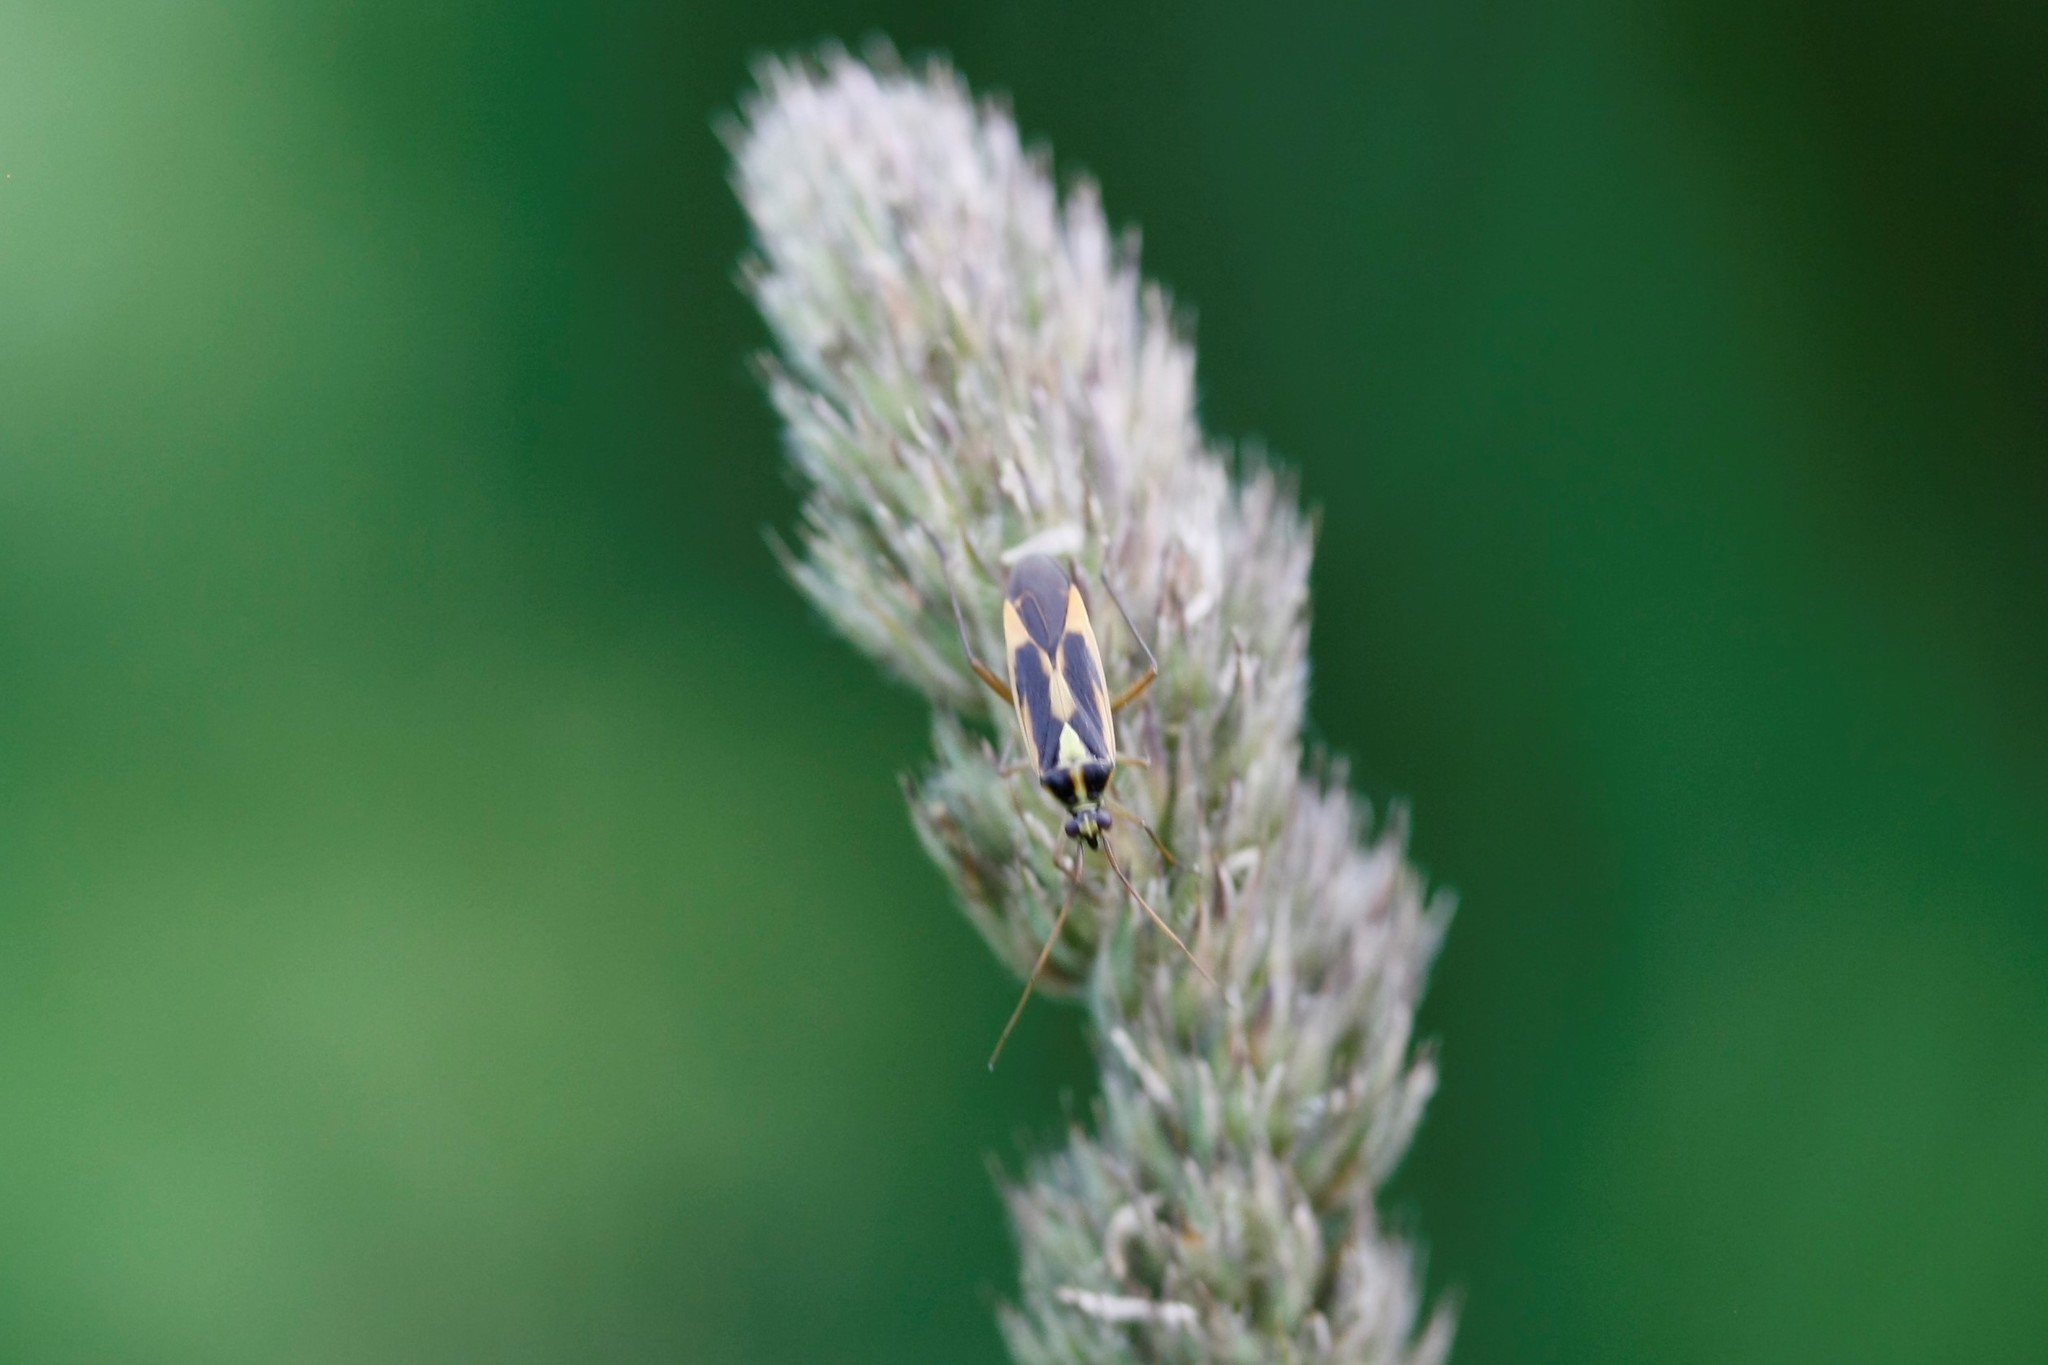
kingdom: Animalia
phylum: Arthropoda
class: Insecta
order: Hemiptera
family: Miridae
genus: Stenotus
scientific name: Stenotus binotatus
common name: Plant bug
